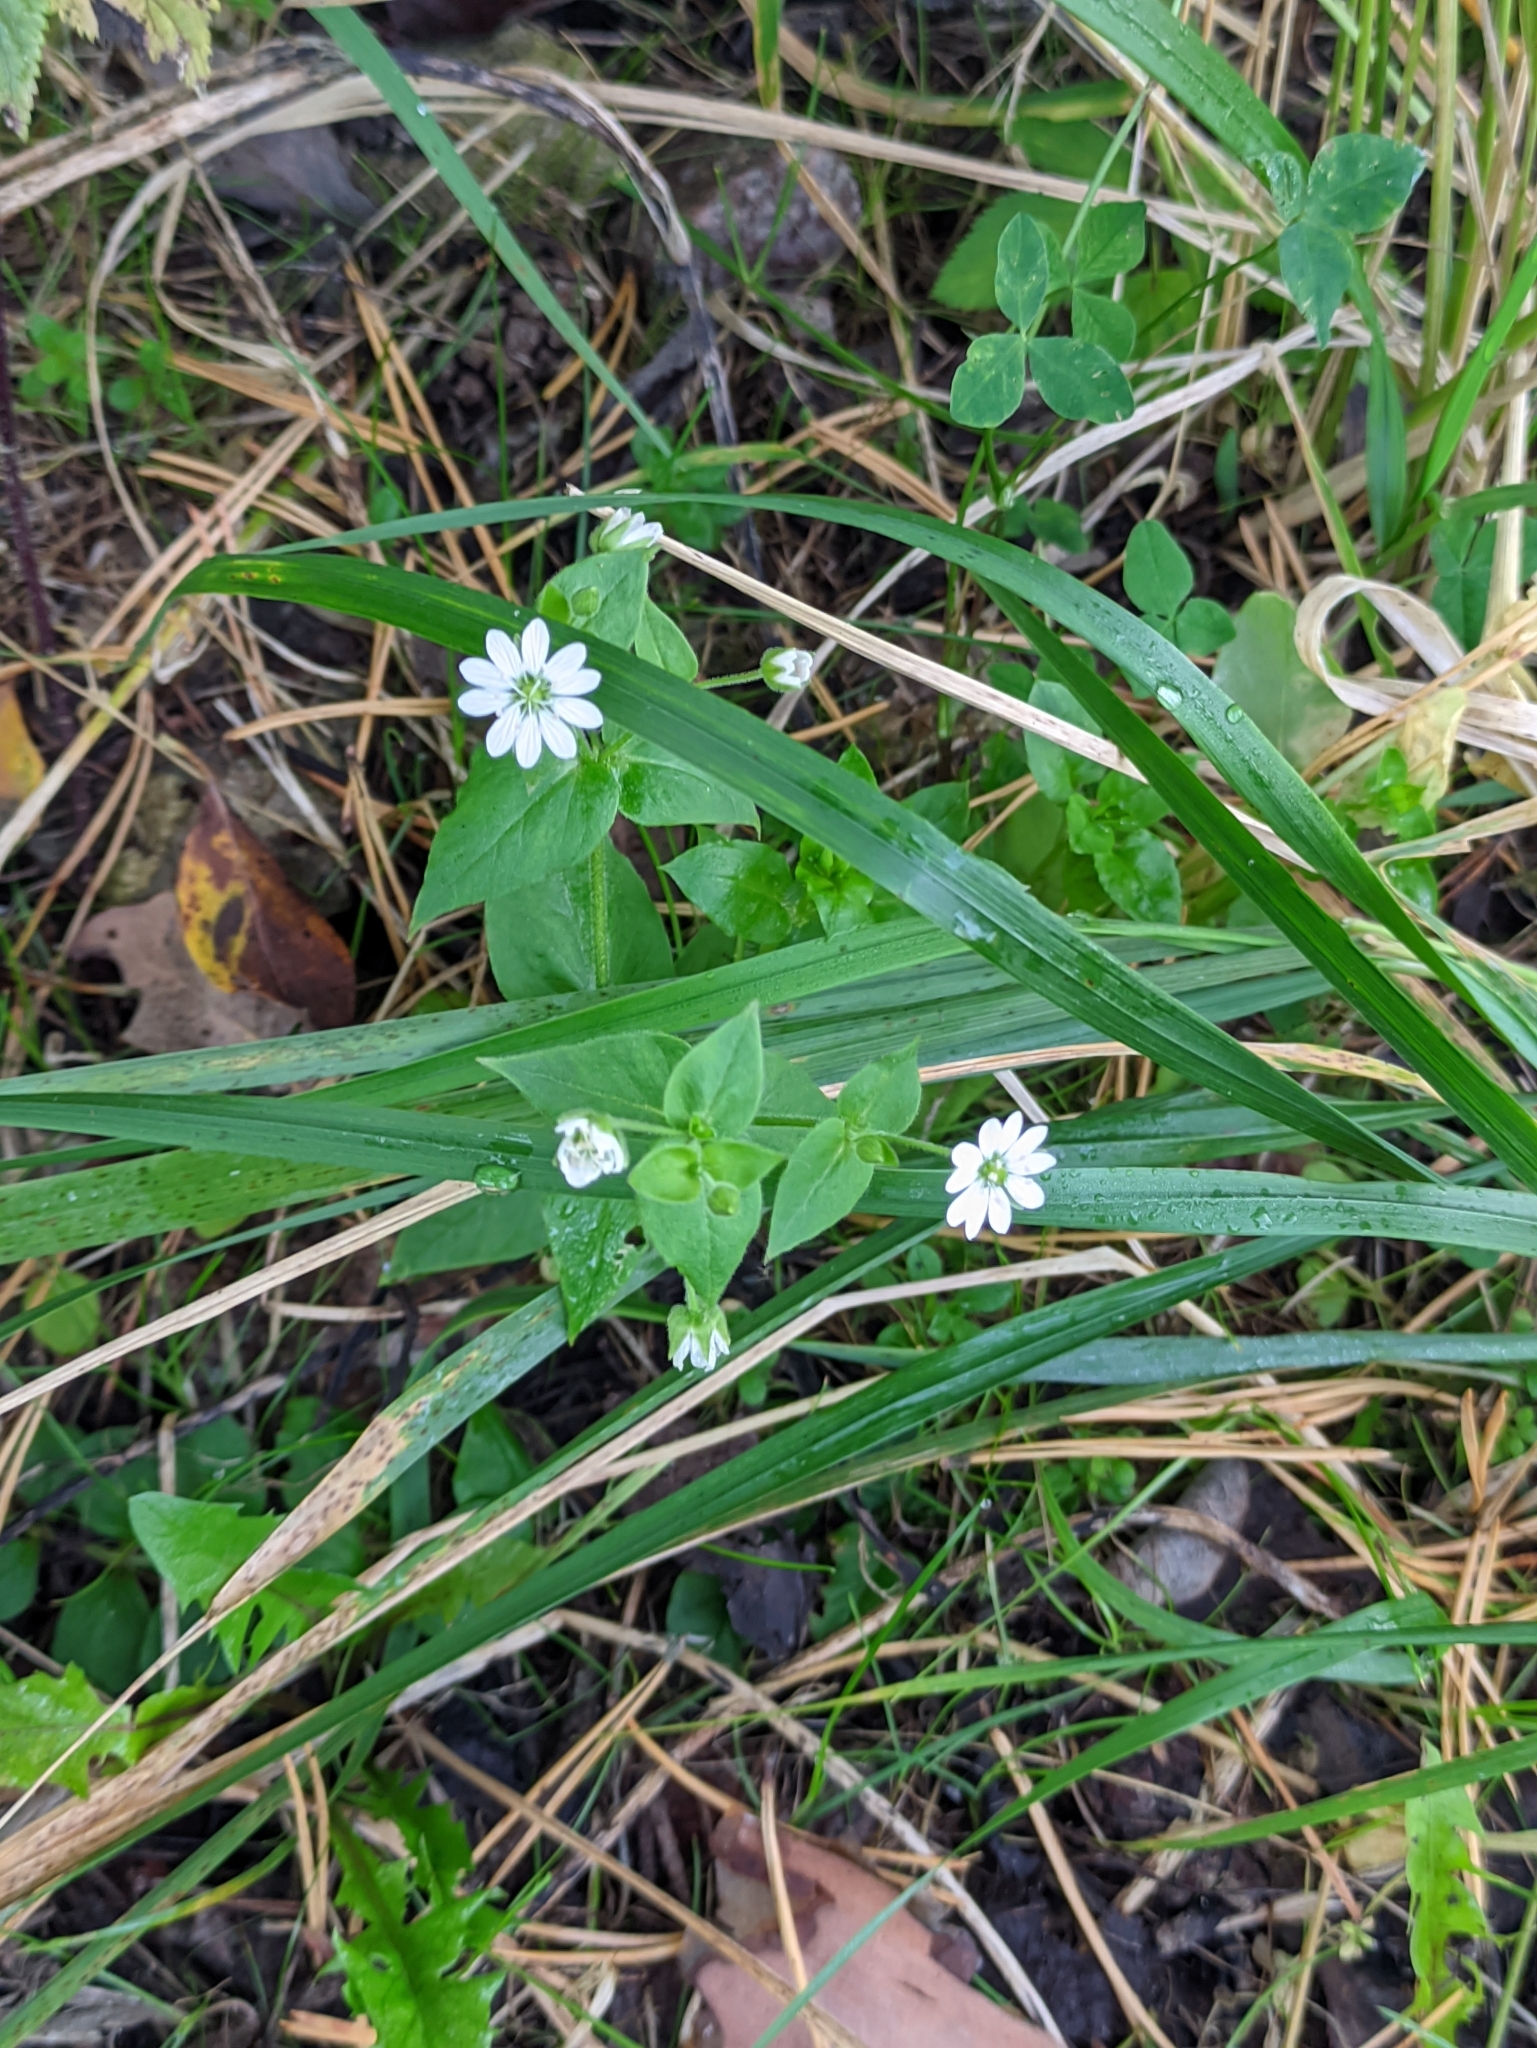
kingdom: Plantae
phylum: Tracheophyta
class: Magnoliopsida
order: Caryophyllales
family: Caryophyllaceae
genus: Stellaria
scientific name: Stellaria aquatica
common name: Water chickweed
